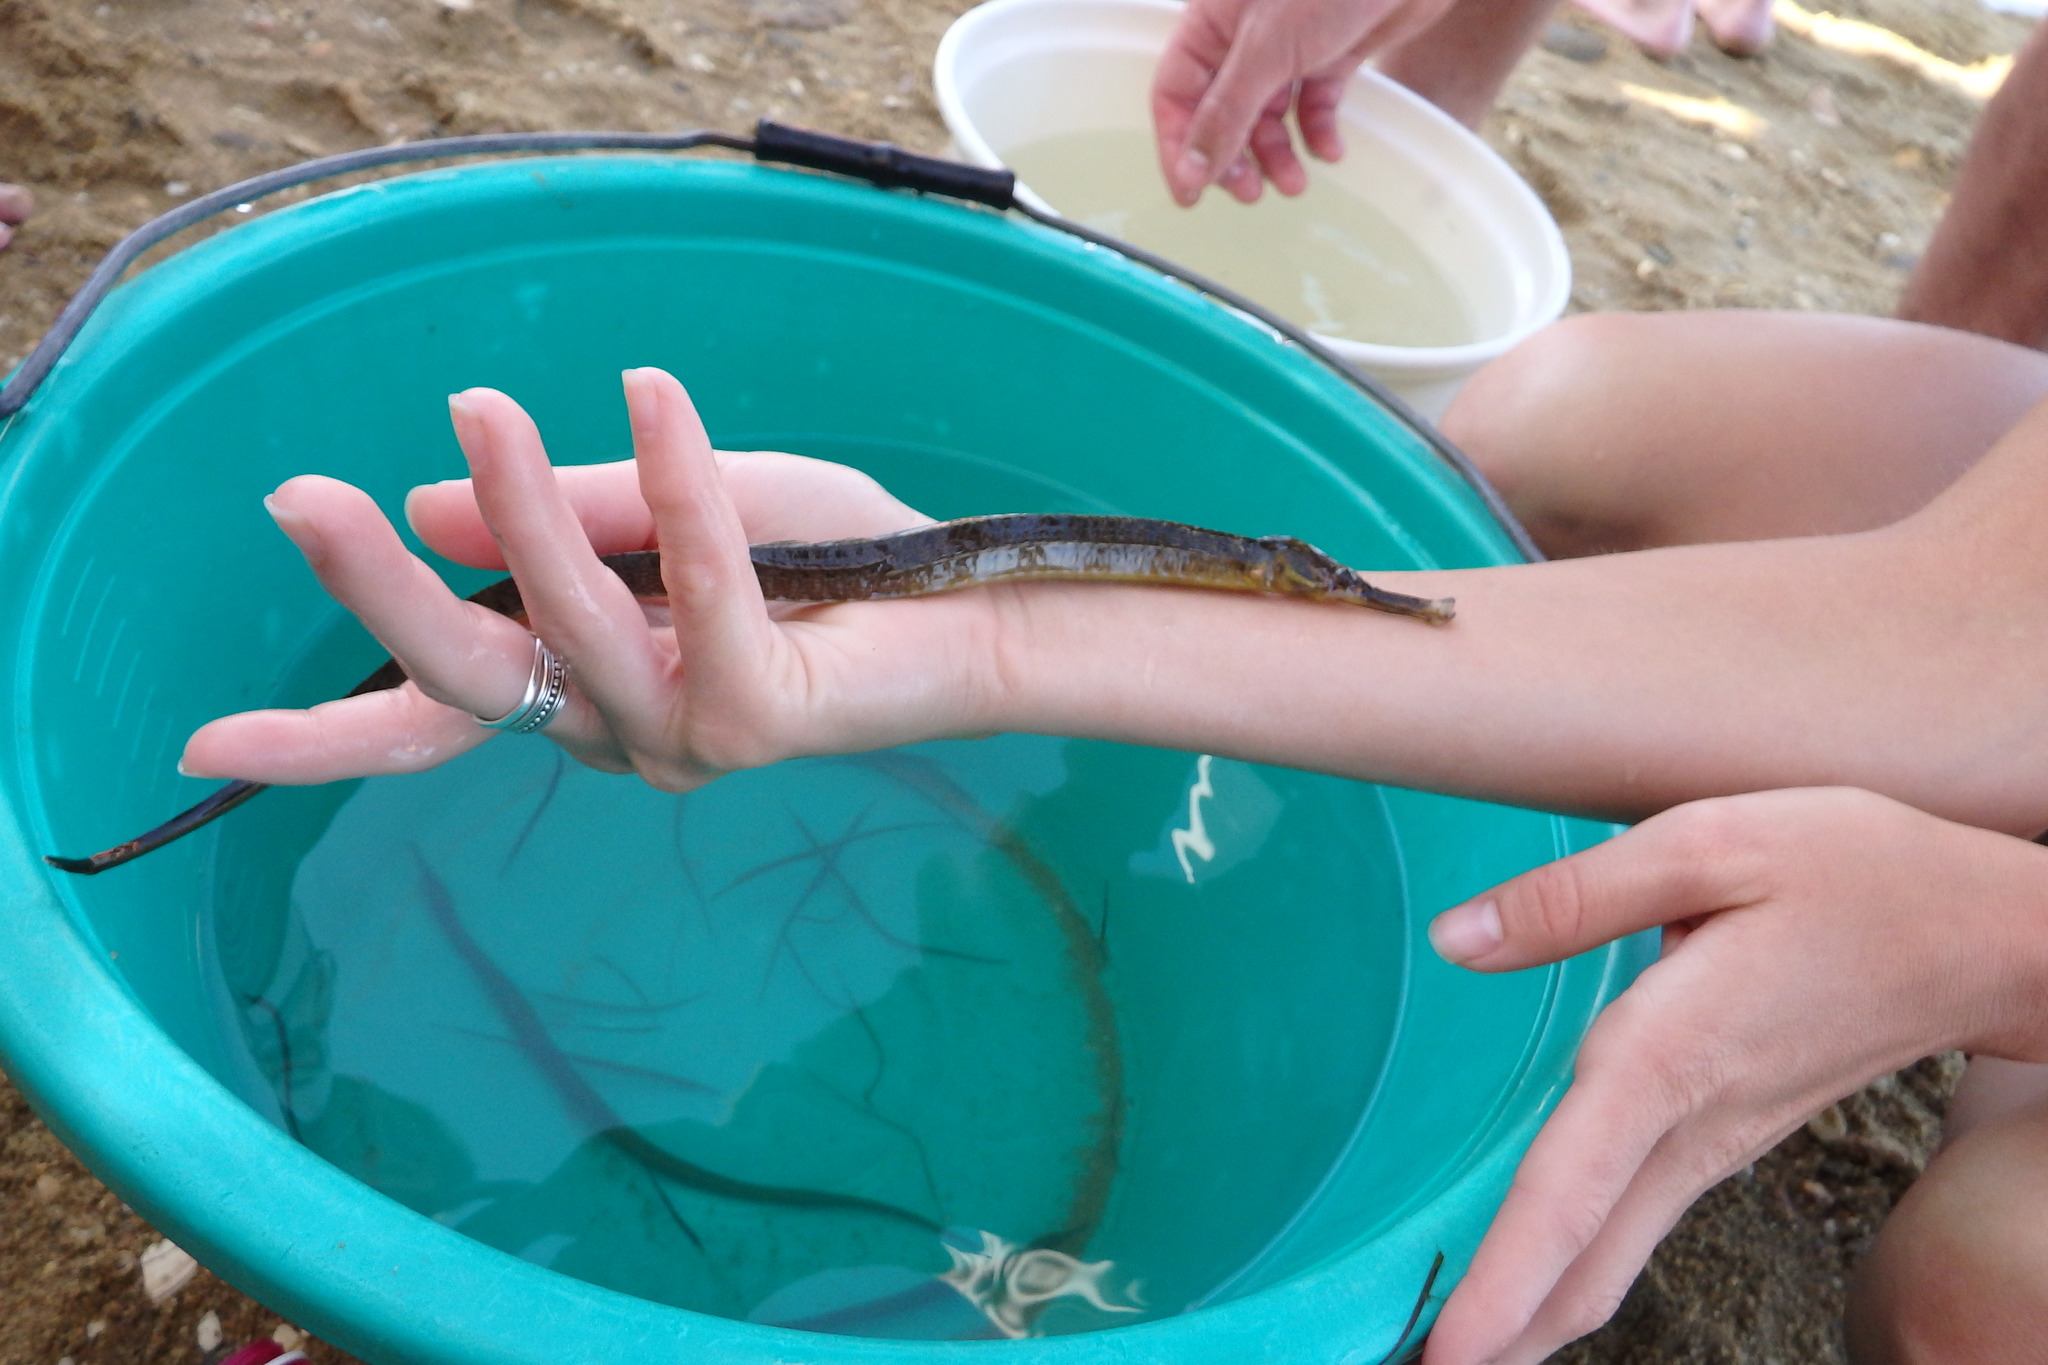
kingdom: Animalia
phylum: Chordata
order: Syngnathiformes
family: Syngnathidae
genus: Syngnathus
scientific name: Syngnathus acus
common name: Greater pipefish
